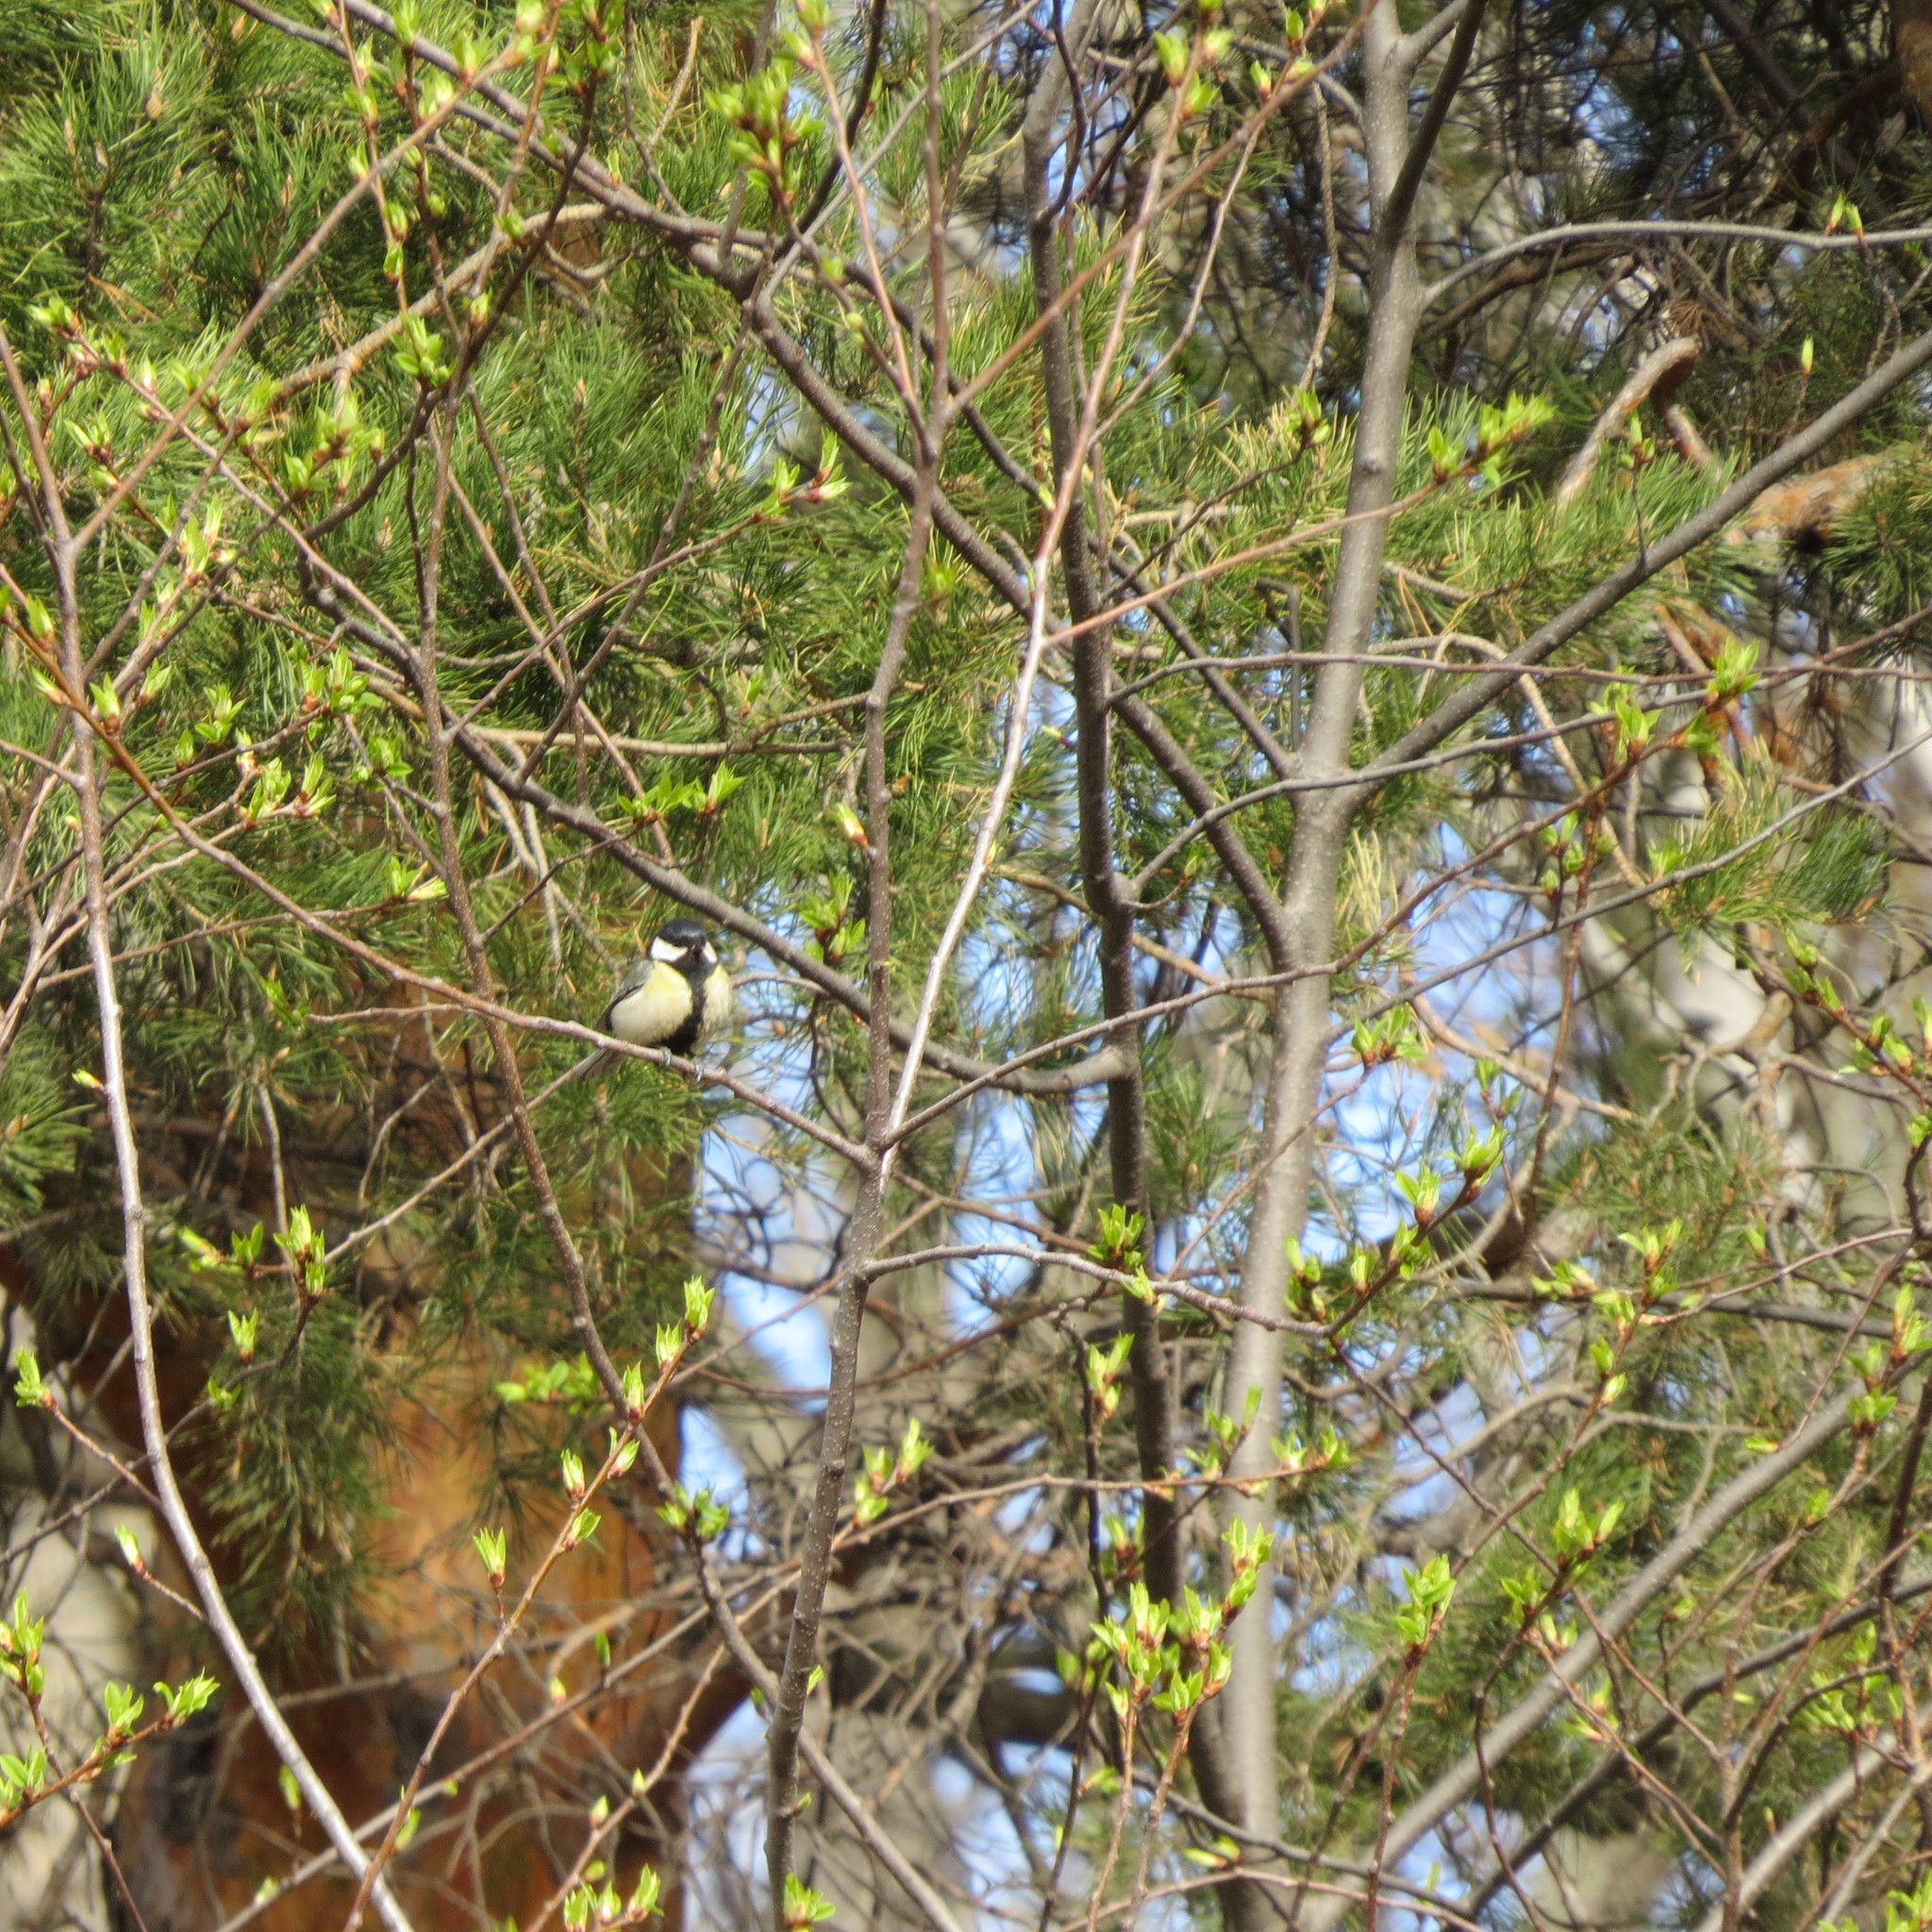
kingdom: Animalia
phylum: Chordata
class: Aves
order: Passeriformes
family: Paridae
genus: Parus
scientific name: Parus major
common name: Great tit
